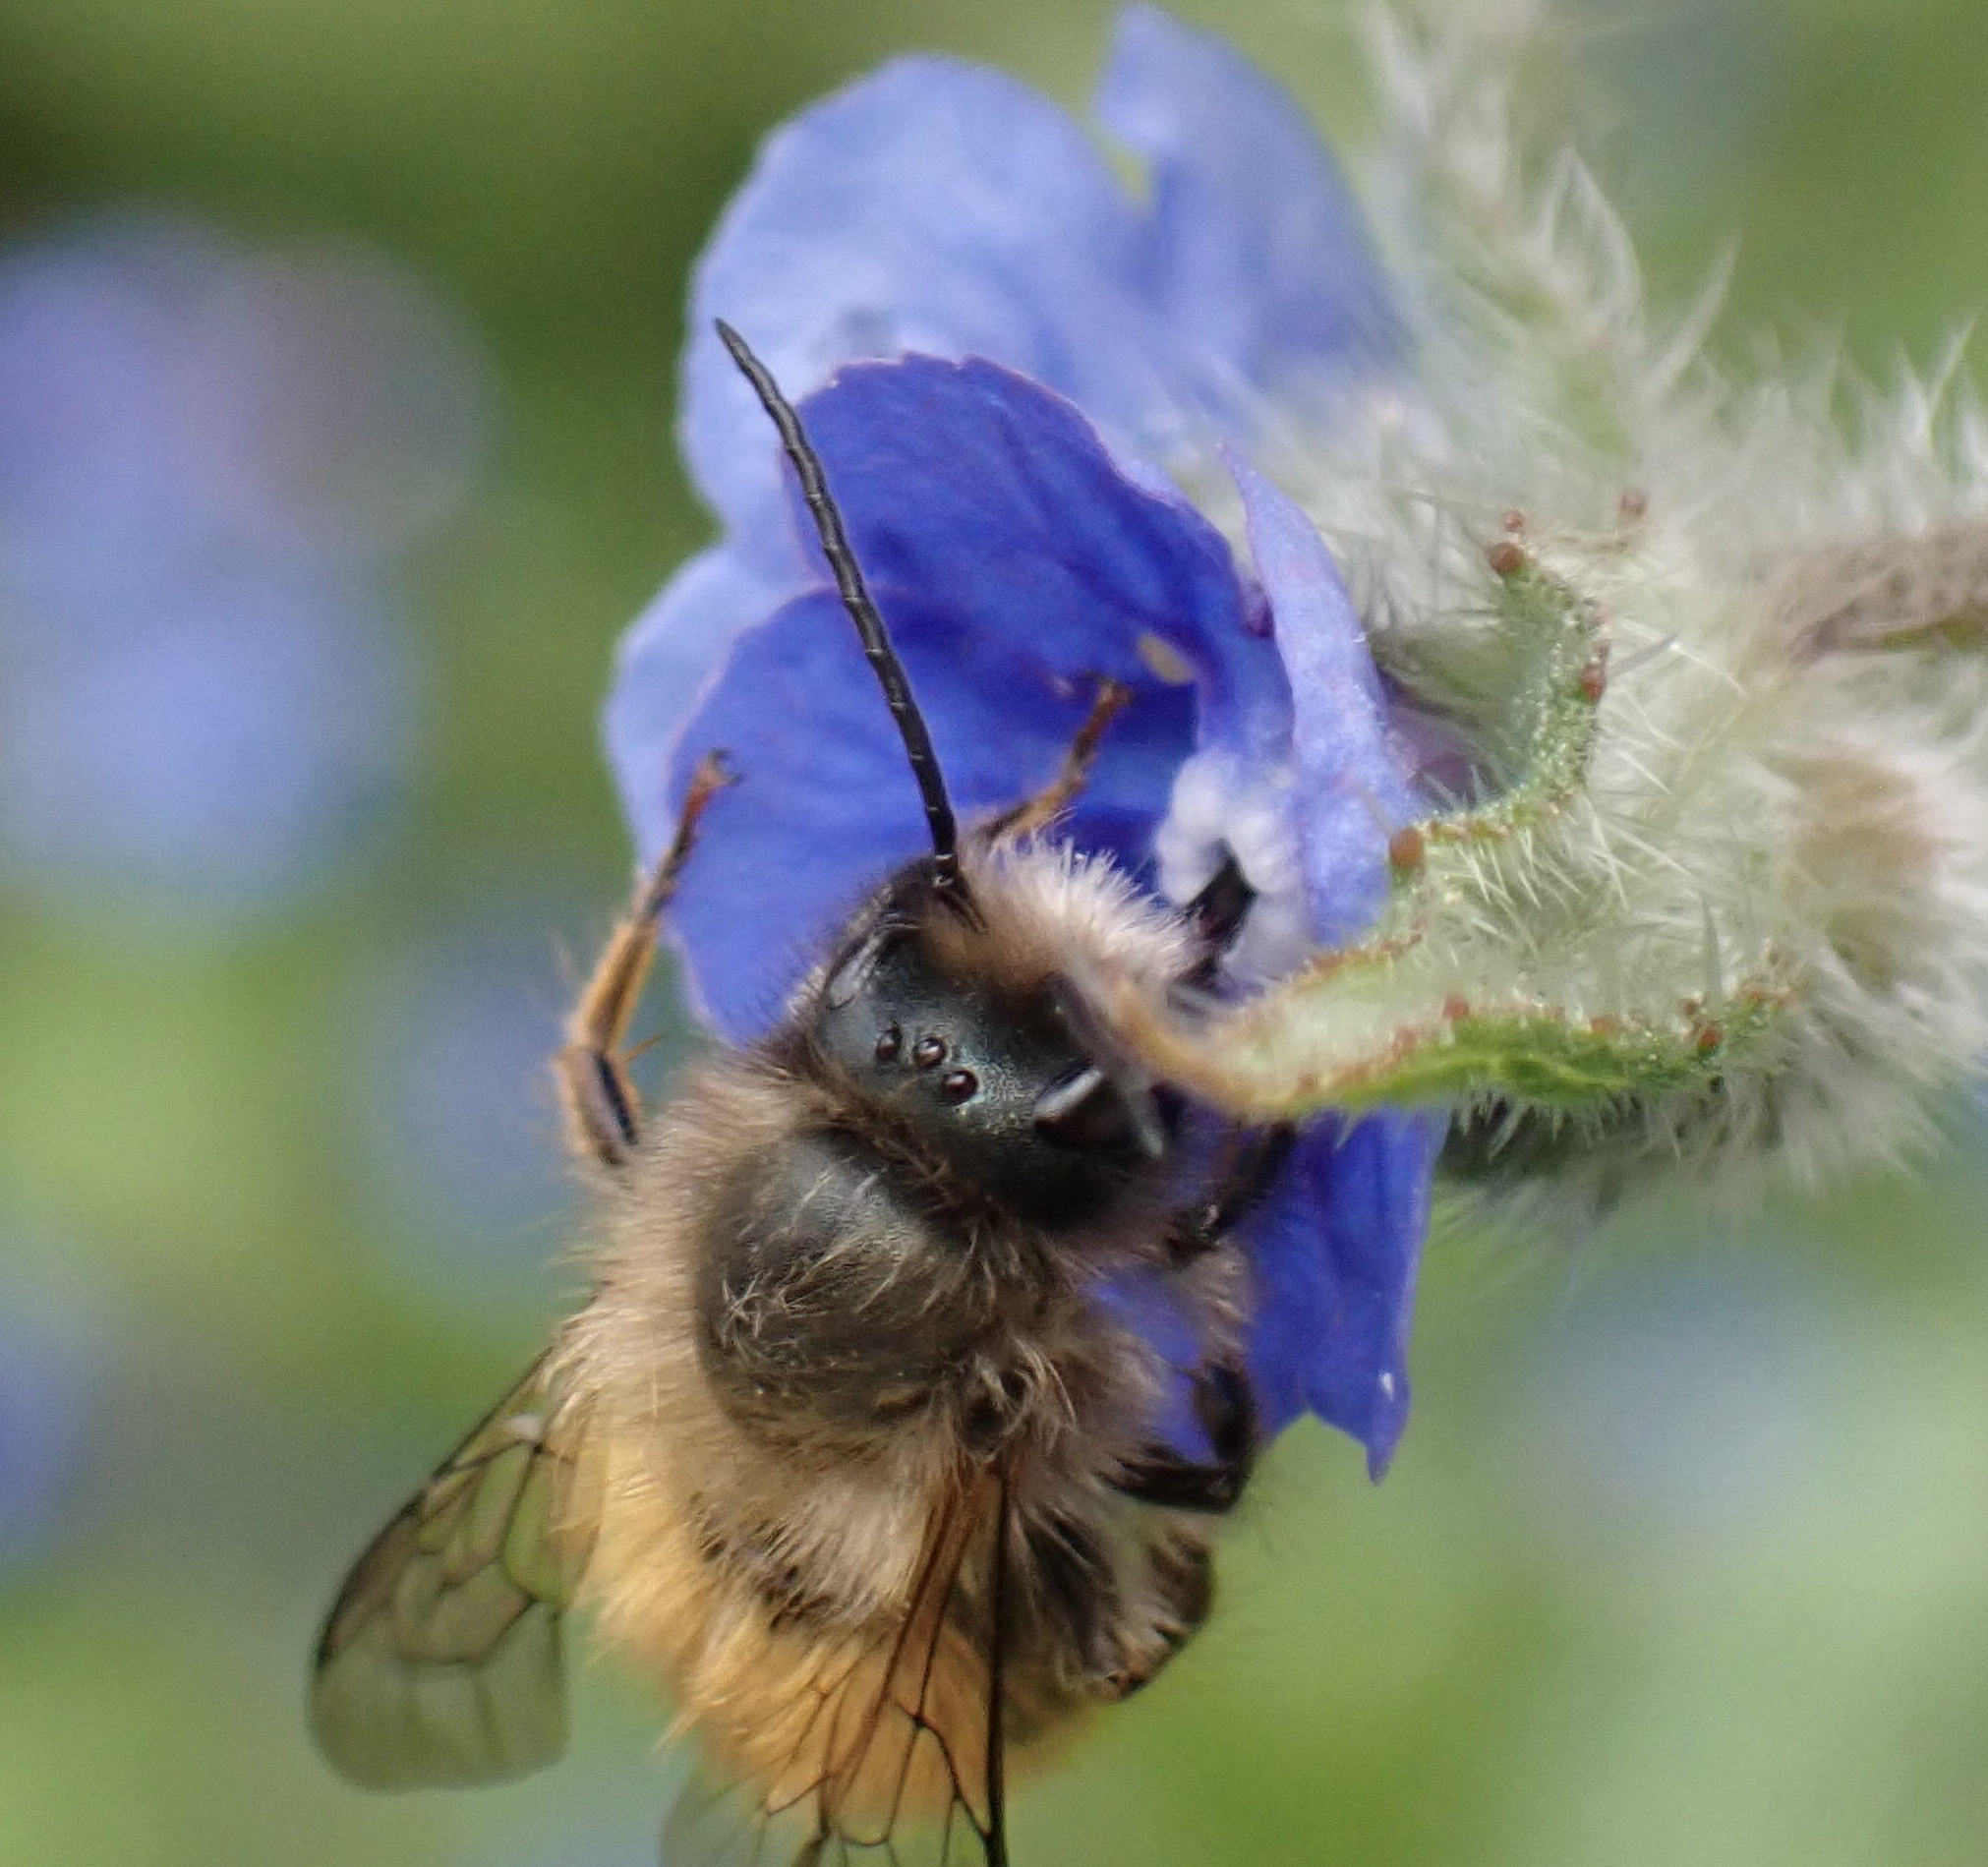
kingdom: Animalia
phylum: Arthropoda
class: Insecta
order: Hymenoptera
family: Megachilidae
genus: Osmia
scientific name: Osmia bicornis
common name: Red mason bee
